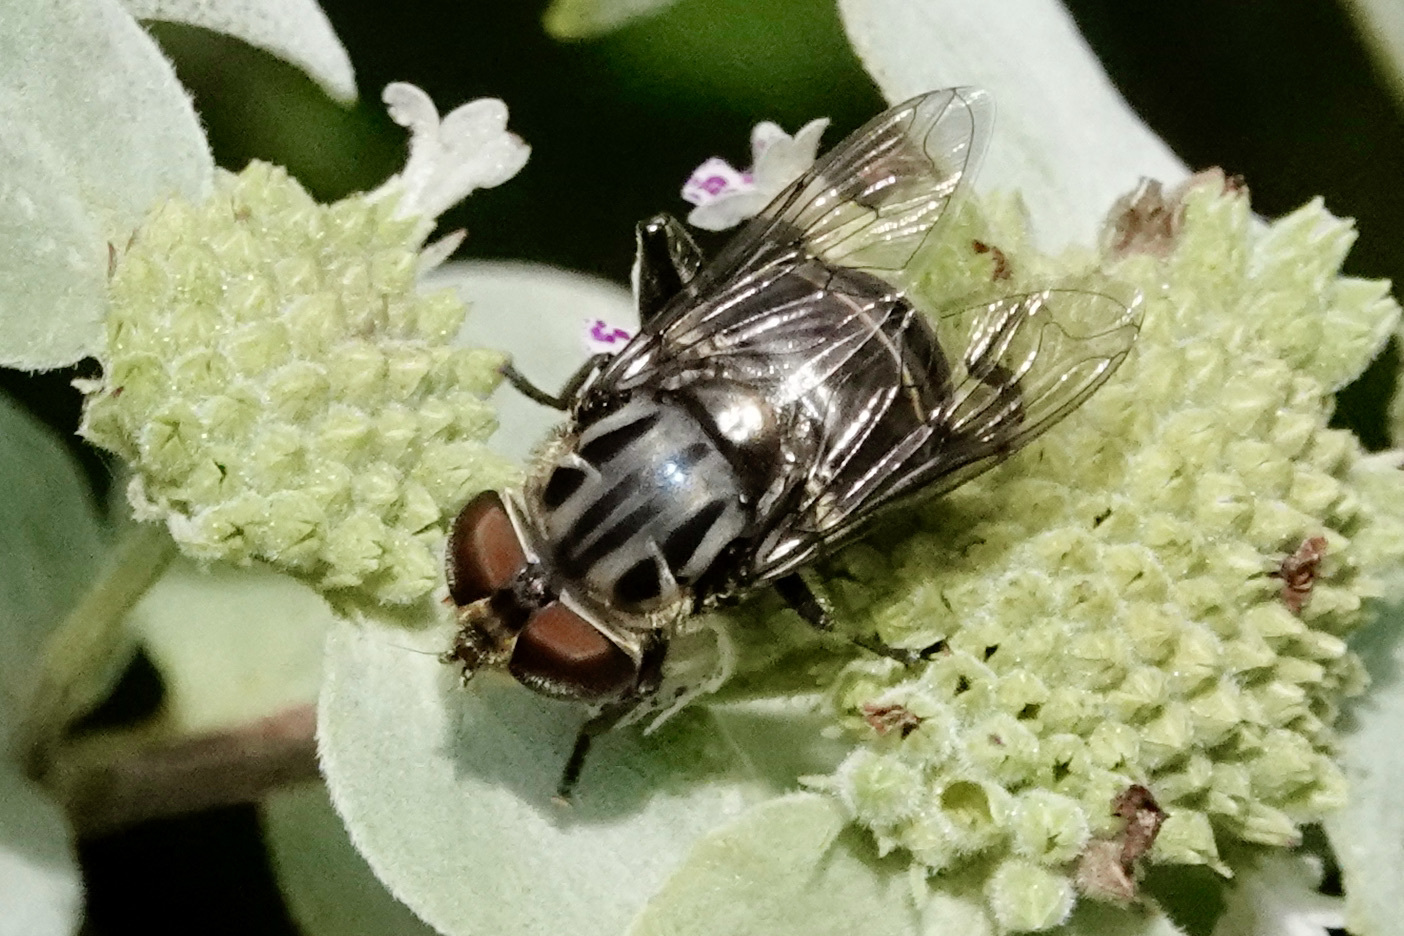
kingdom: Animalia
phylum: Arthropoda
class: Insecta
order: Diptera
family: Syrphidae
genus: Palpada
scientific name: Palpada furcata
